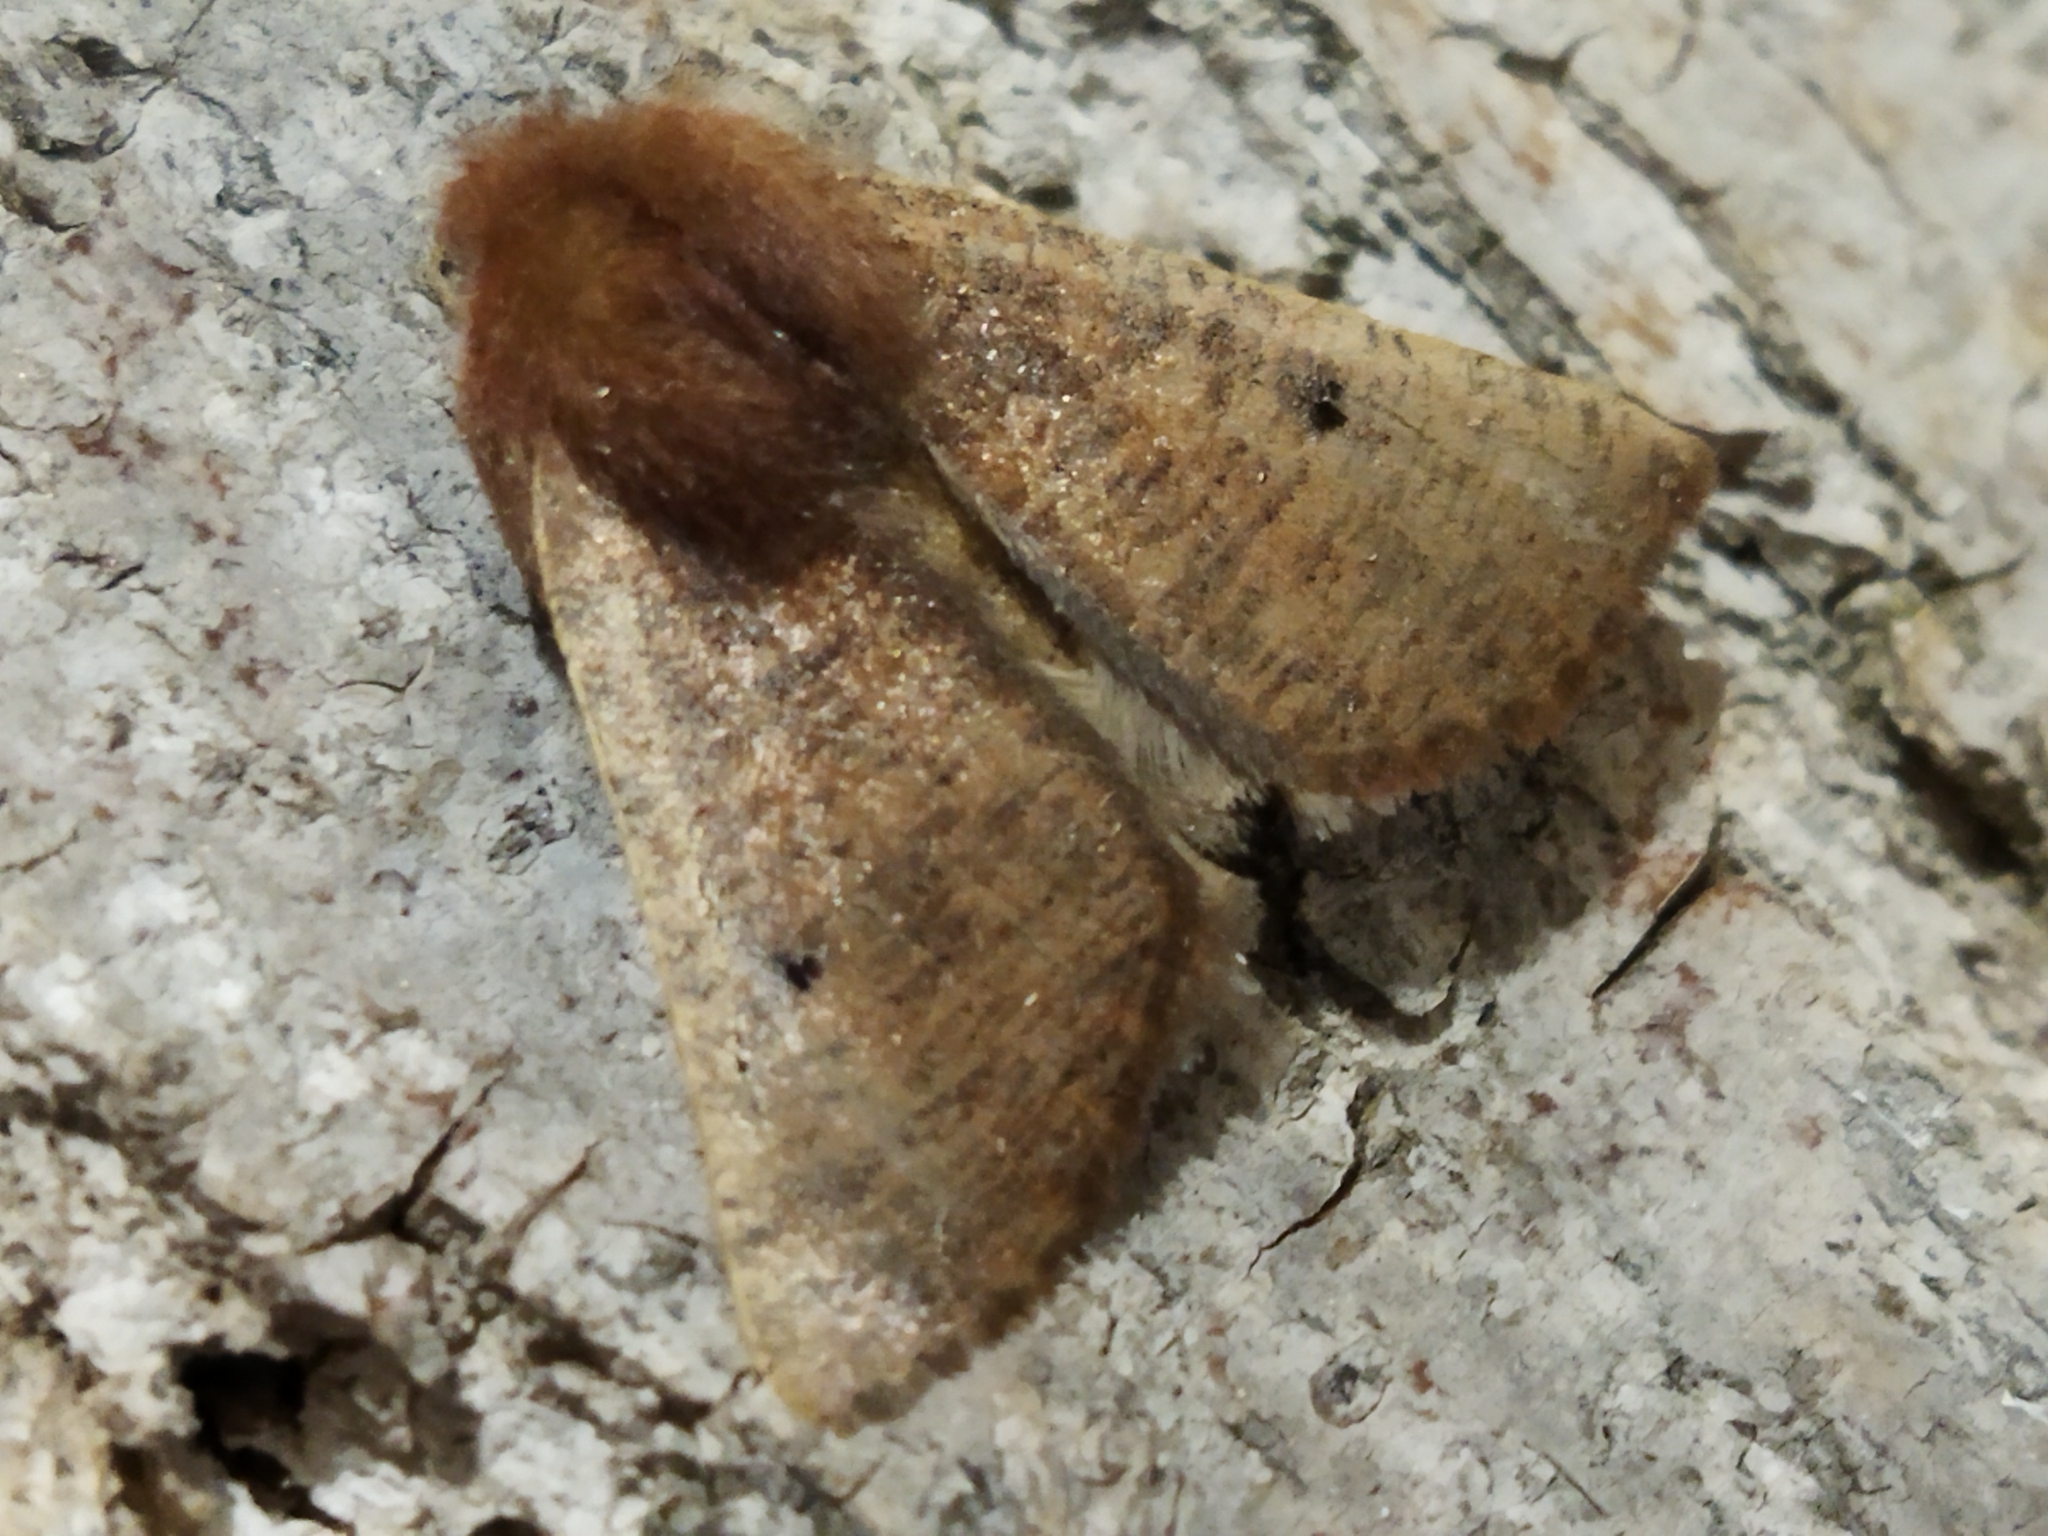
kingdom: Animalia
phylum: Arthropoda
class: Insecta
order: Lepidoptera
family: Geometridae
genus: Dasycorsa
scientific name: Dasycorsa modesta
